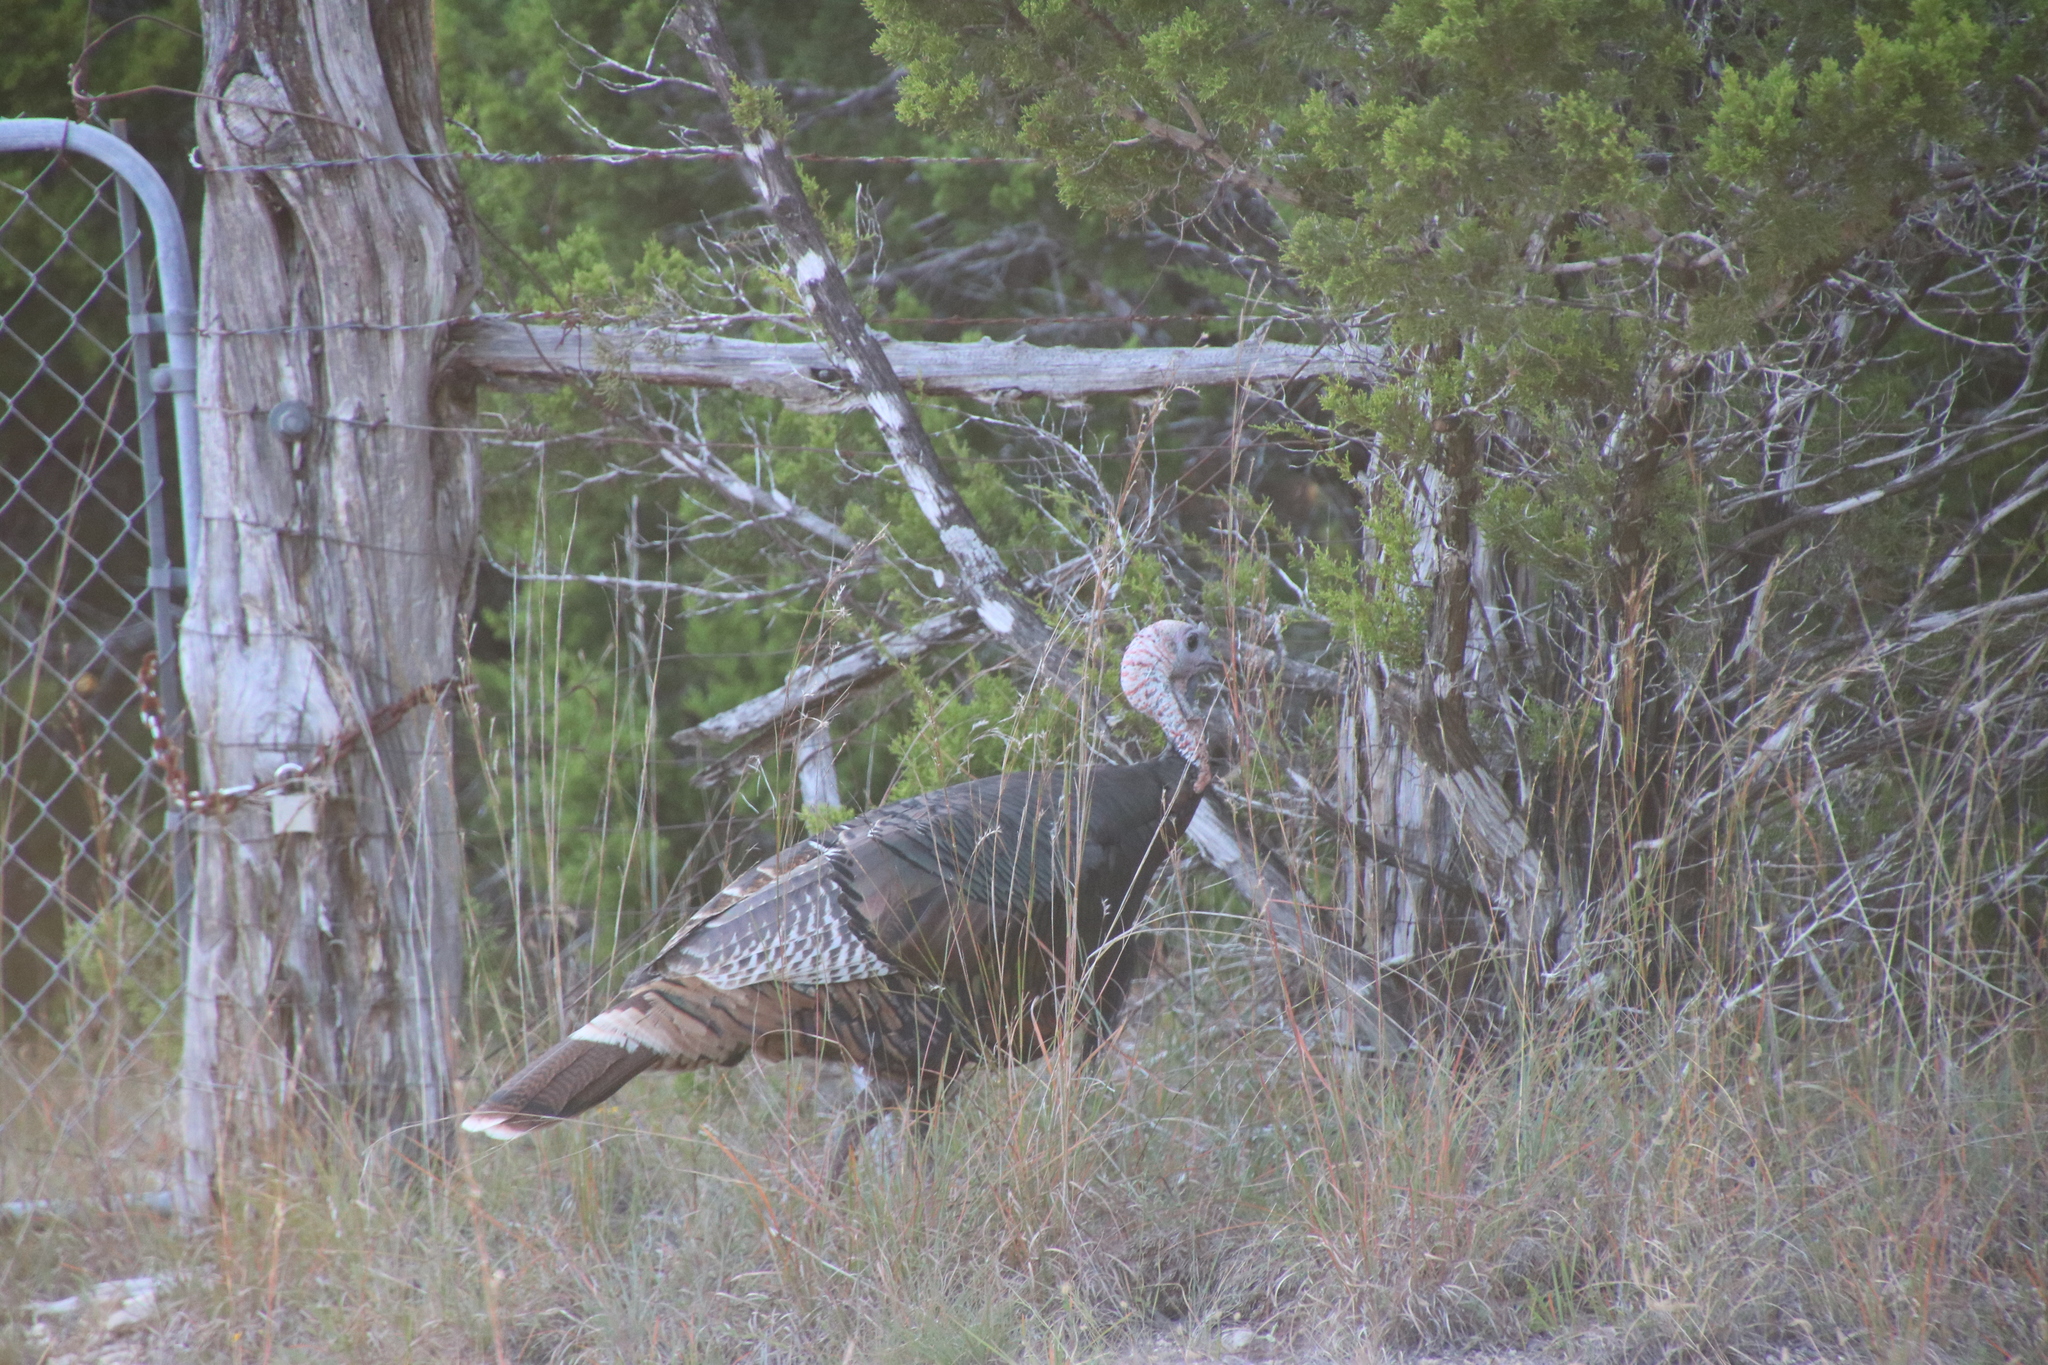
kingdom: Animalia
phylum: Chordata
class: Aves
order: Galliformes
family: Phasianidae
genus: Meleagris
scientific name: Meleagris gallopavo
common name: Wild turkey
